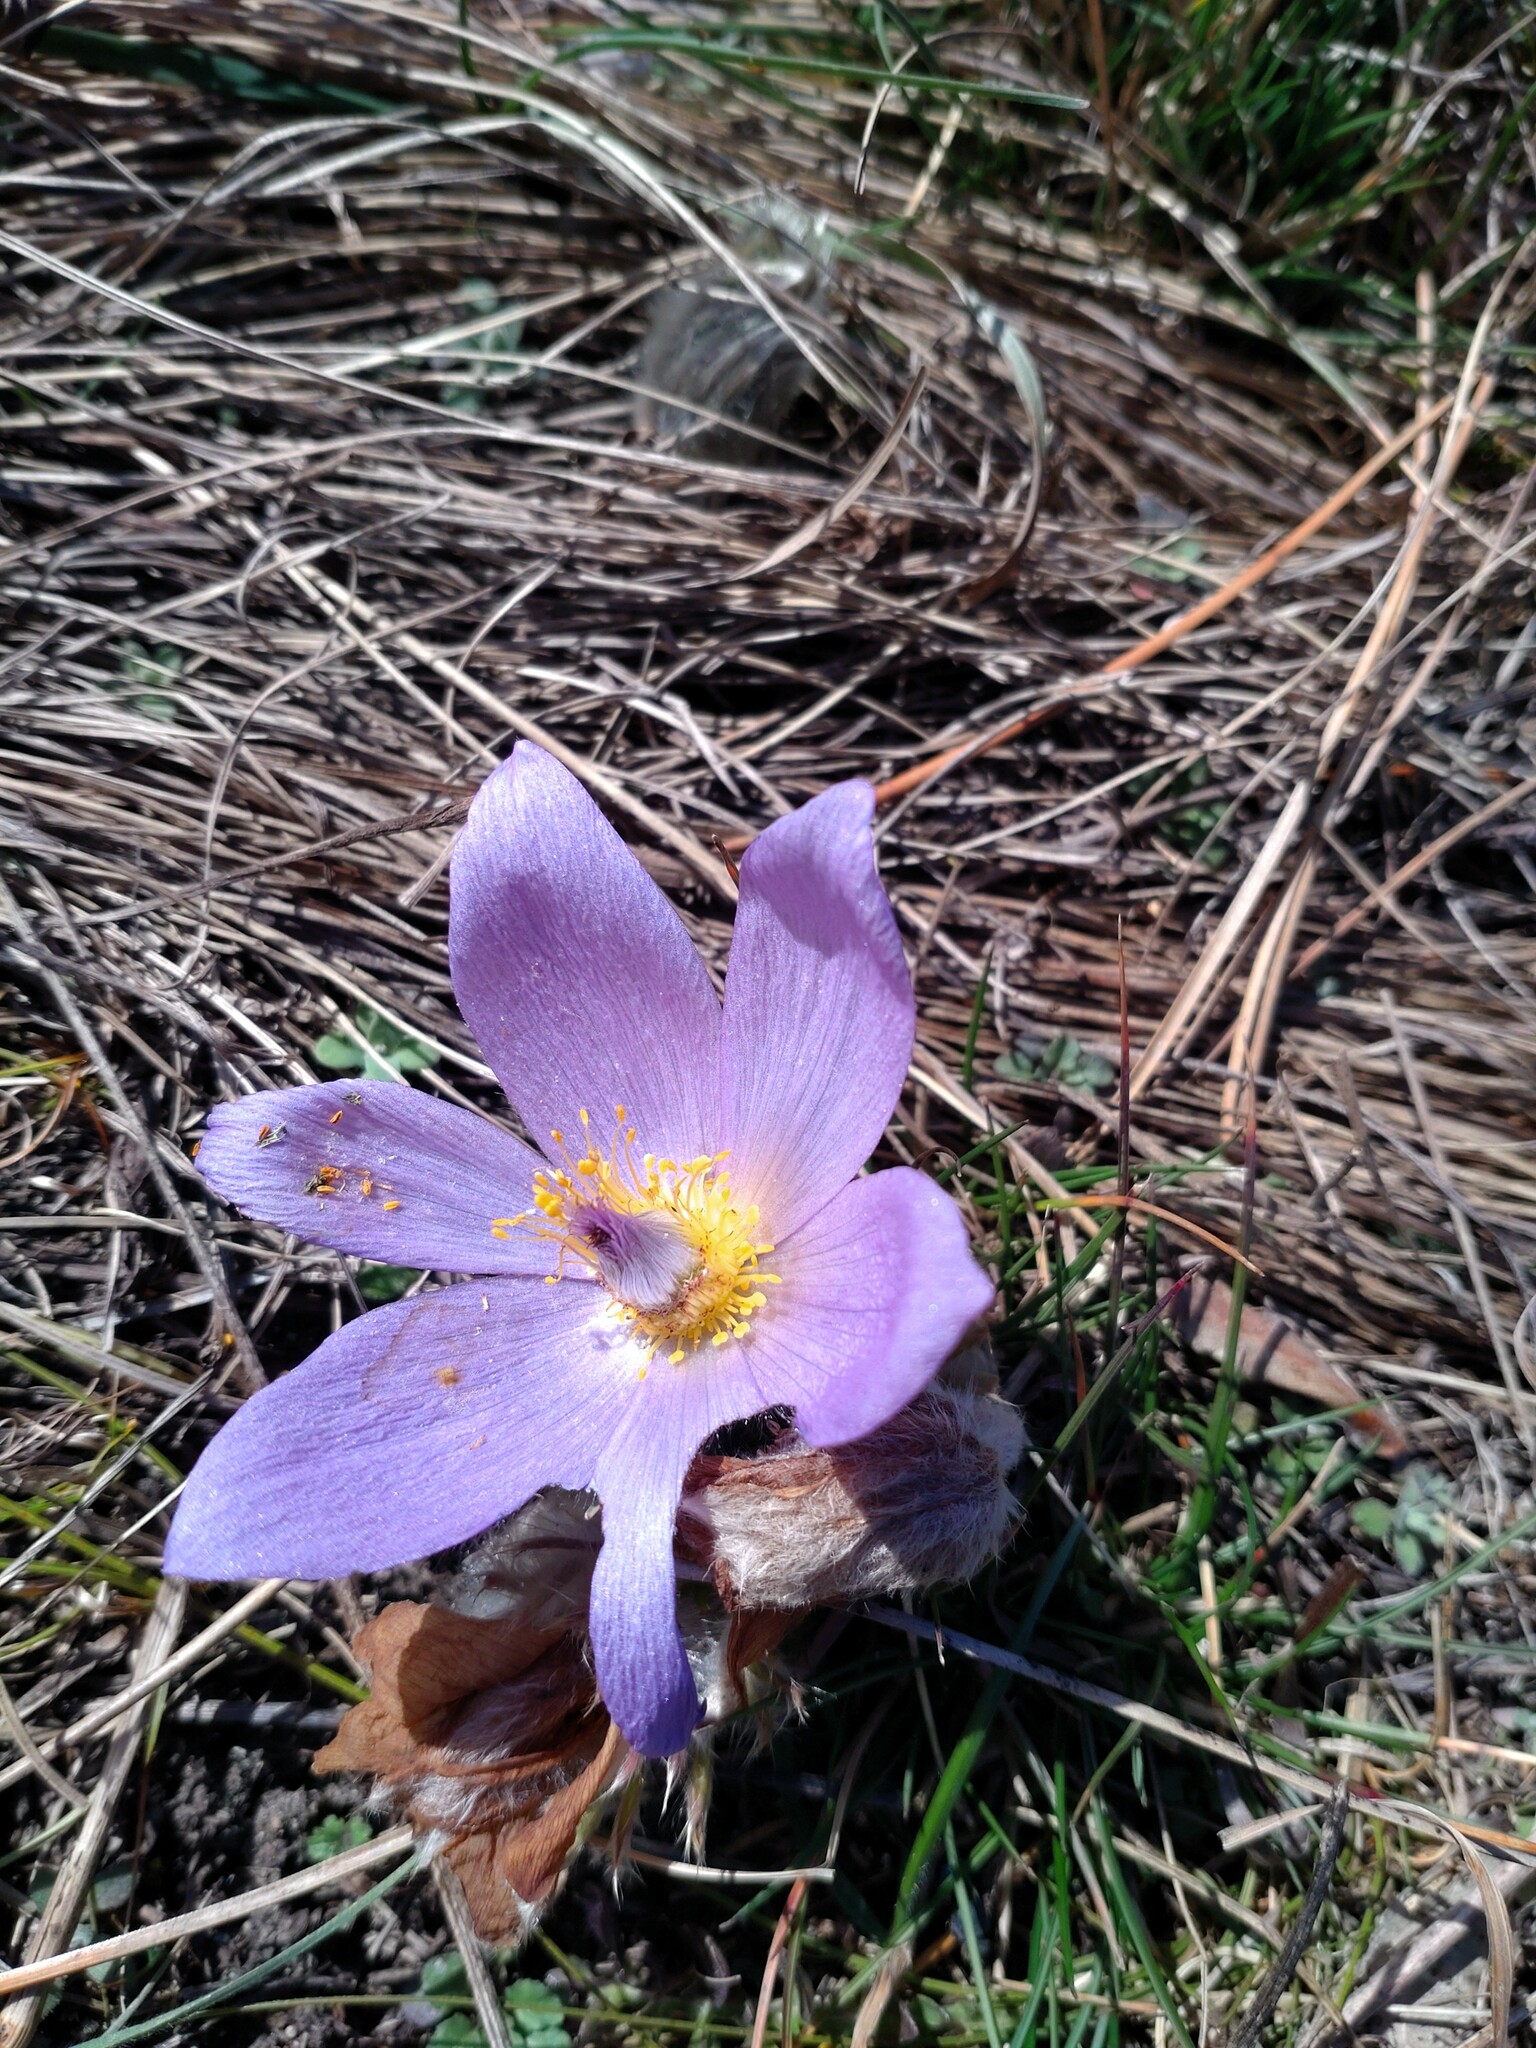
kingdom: Plantae
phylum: Tracheophyta
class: Magnoliopsida
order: Ranunculales
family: Ranunculaceae
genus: Pulsatilla
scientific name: Pulsatilla grandis
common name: Greater pasque flower
